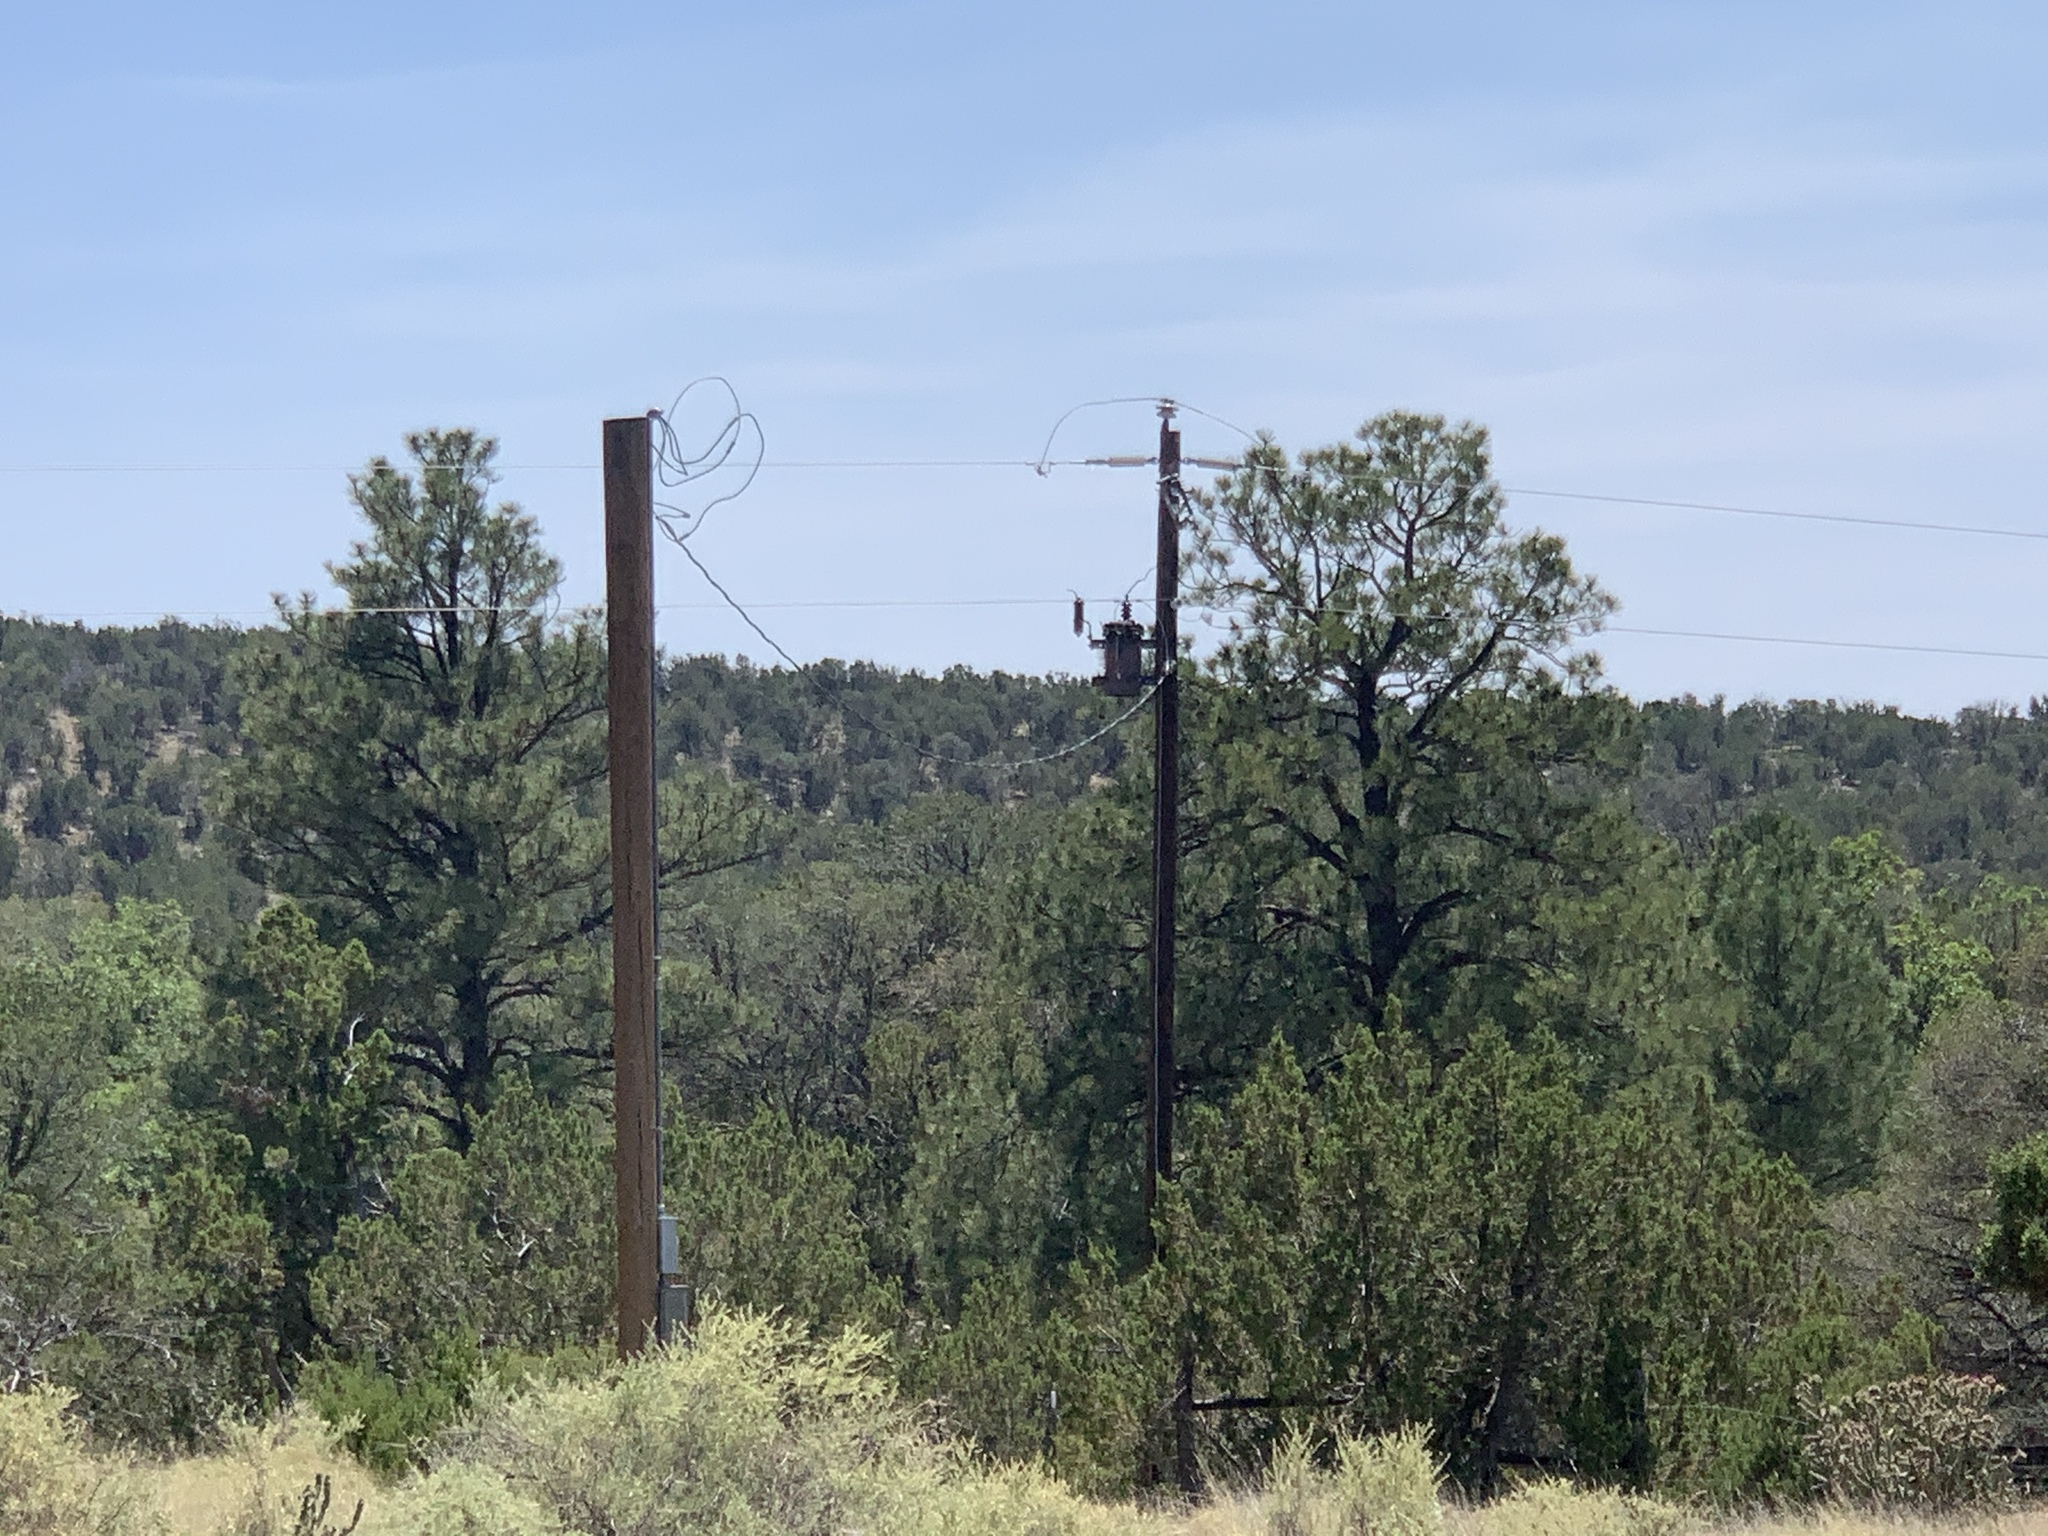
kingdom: Plantae
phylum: Tracheophyta
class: Pinopsida
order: Pinales
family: Pinaceae
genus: Pinus
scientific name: Pinus ponderosa
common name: Western yellow-pine
